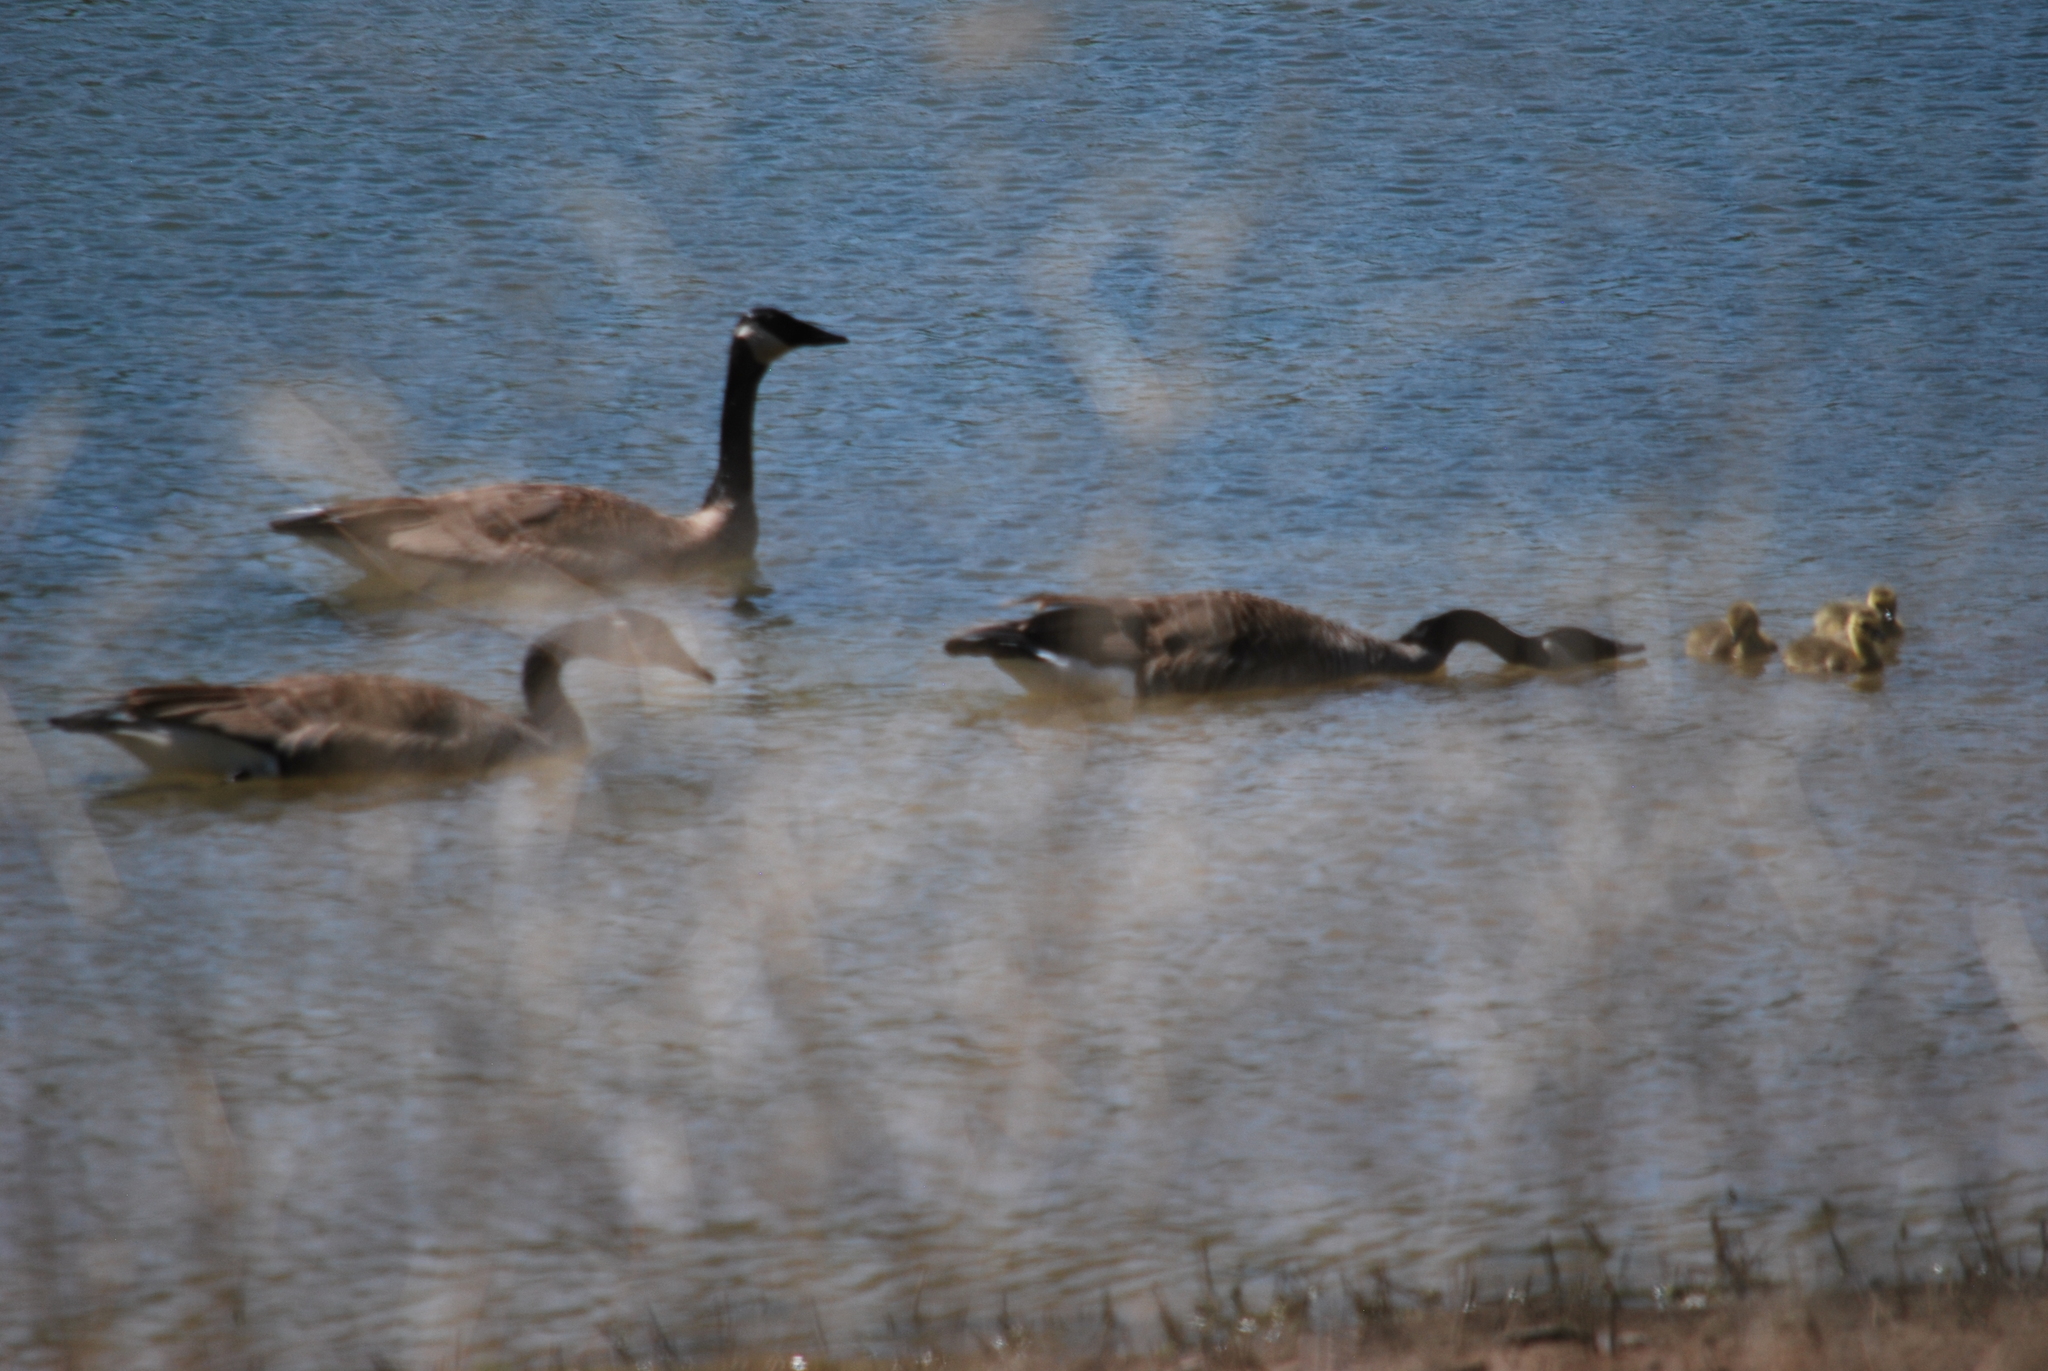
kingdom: Animalia
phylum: Chordata
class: Aves
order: Anseriformes
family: Anatidae
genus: Branta
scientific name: Branta canadensis
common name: Canada goose
